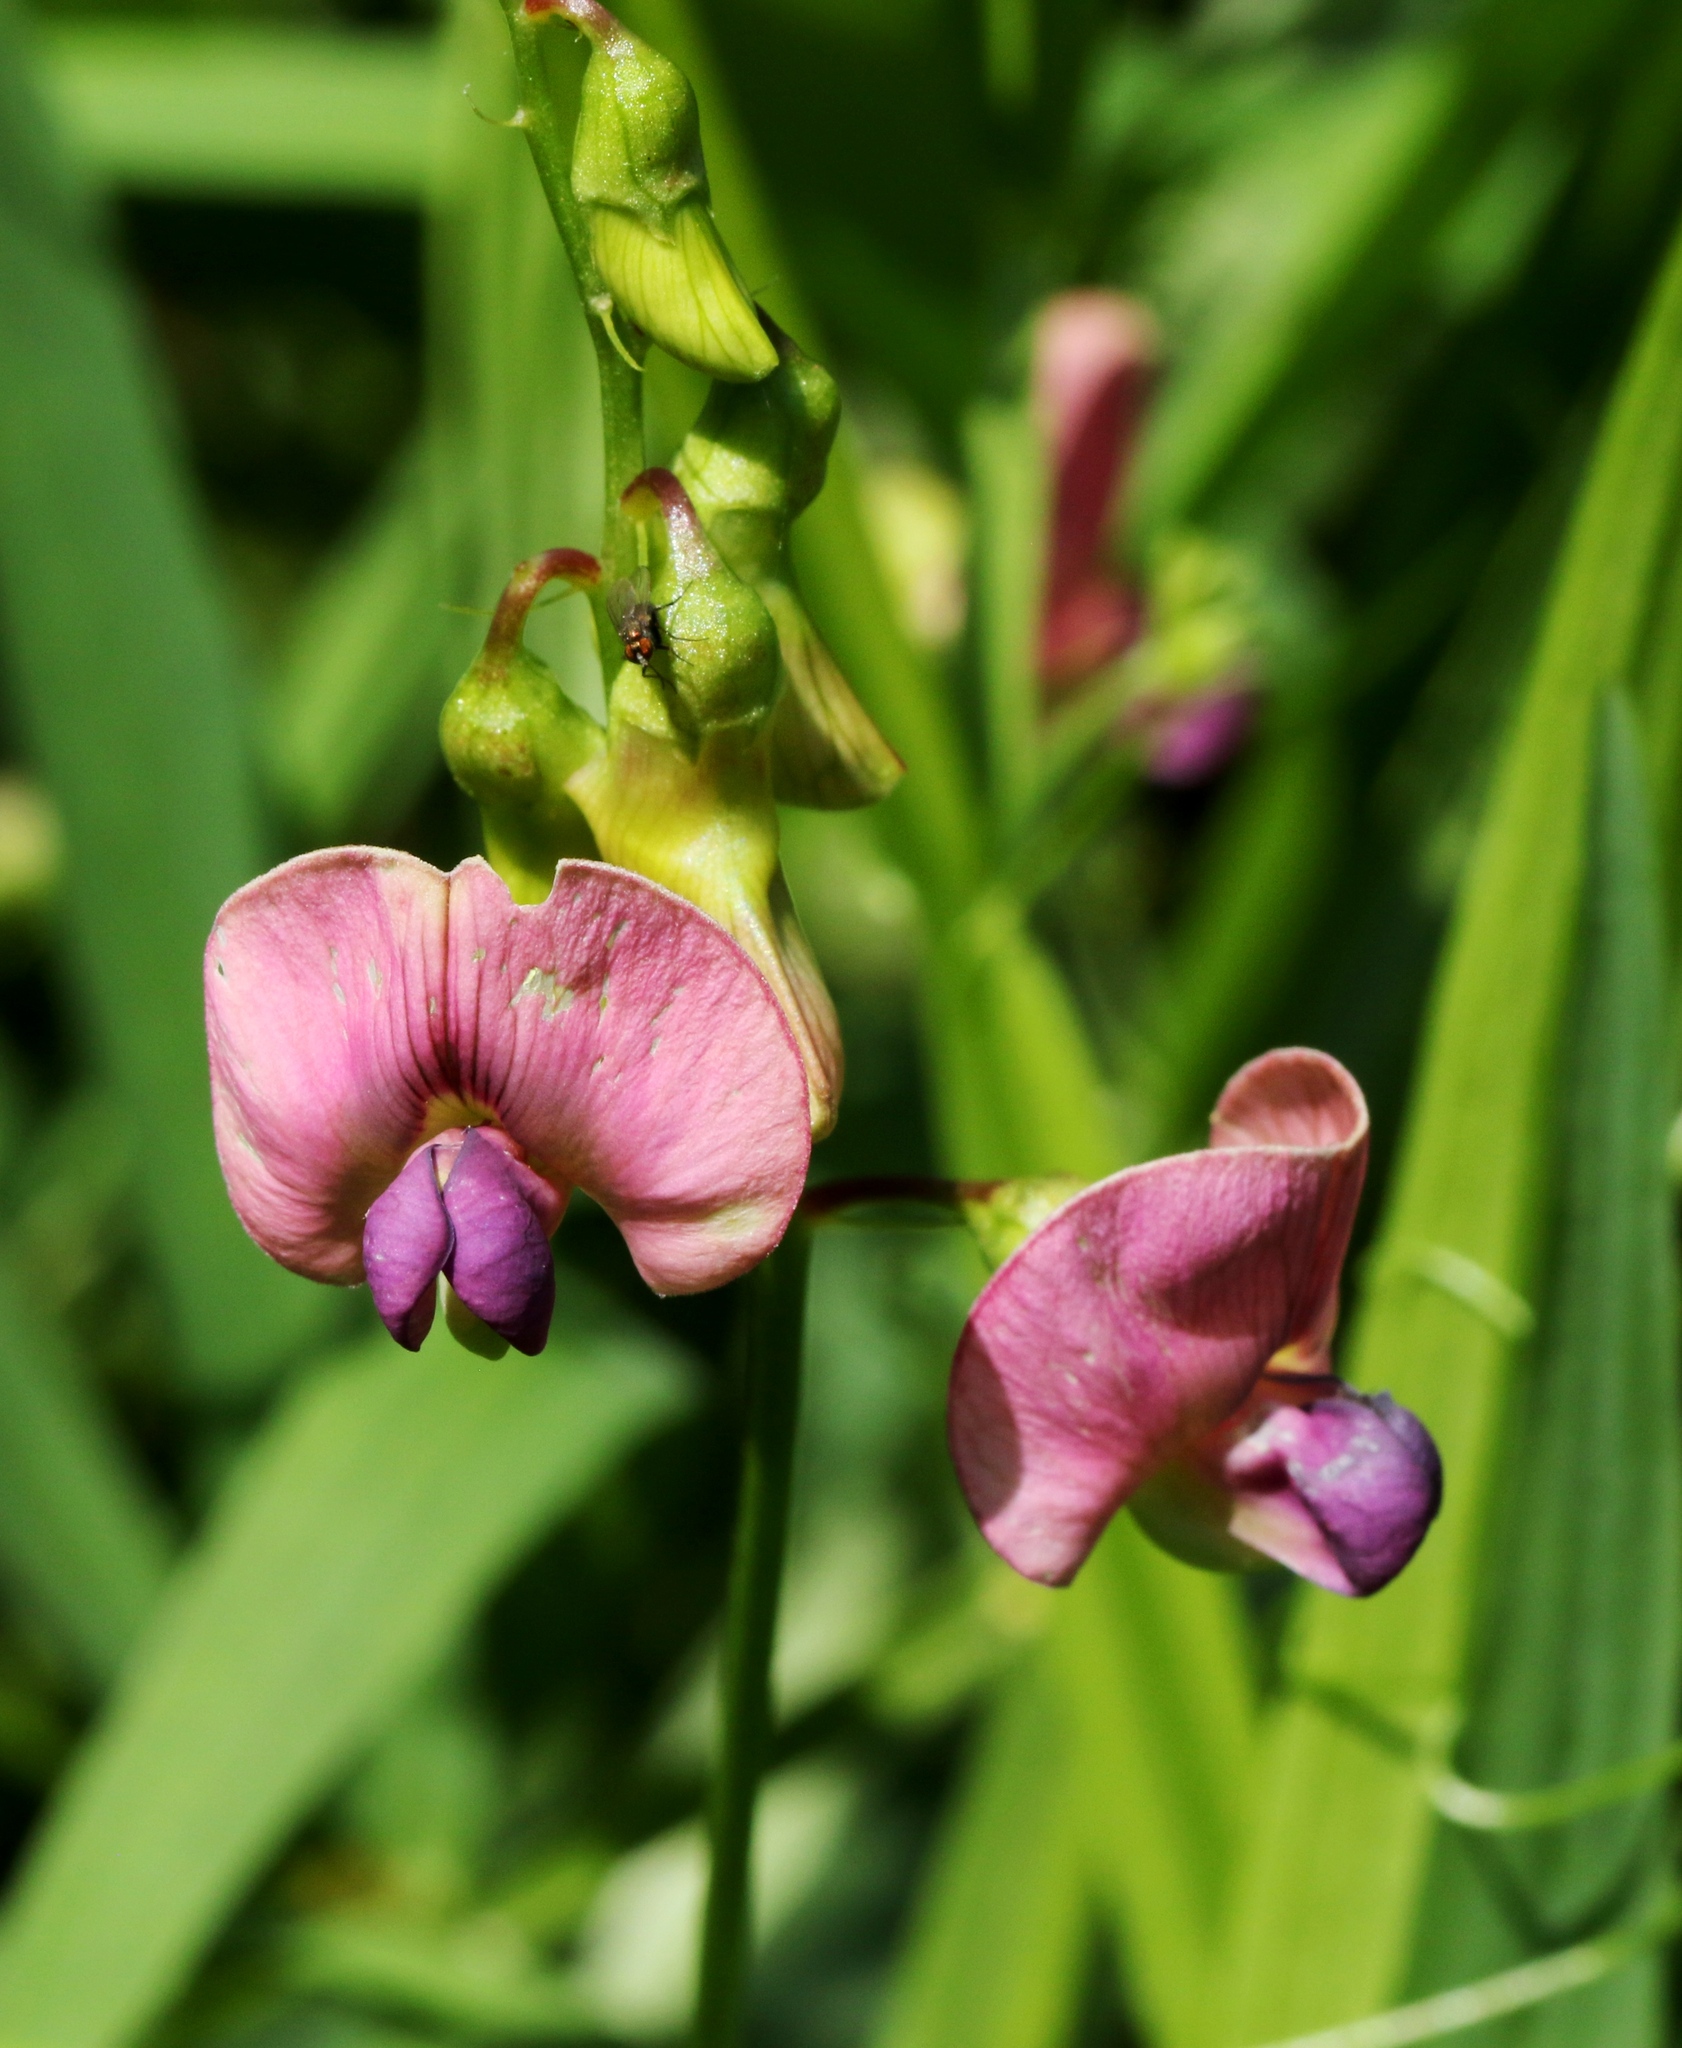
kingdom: Plantae
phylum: Tracheophyta
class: Magnoliopsida
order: Fabales
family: Fabaceae
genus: Lathyrus
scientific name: Lathyrus sylvestris
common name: Flat pea
